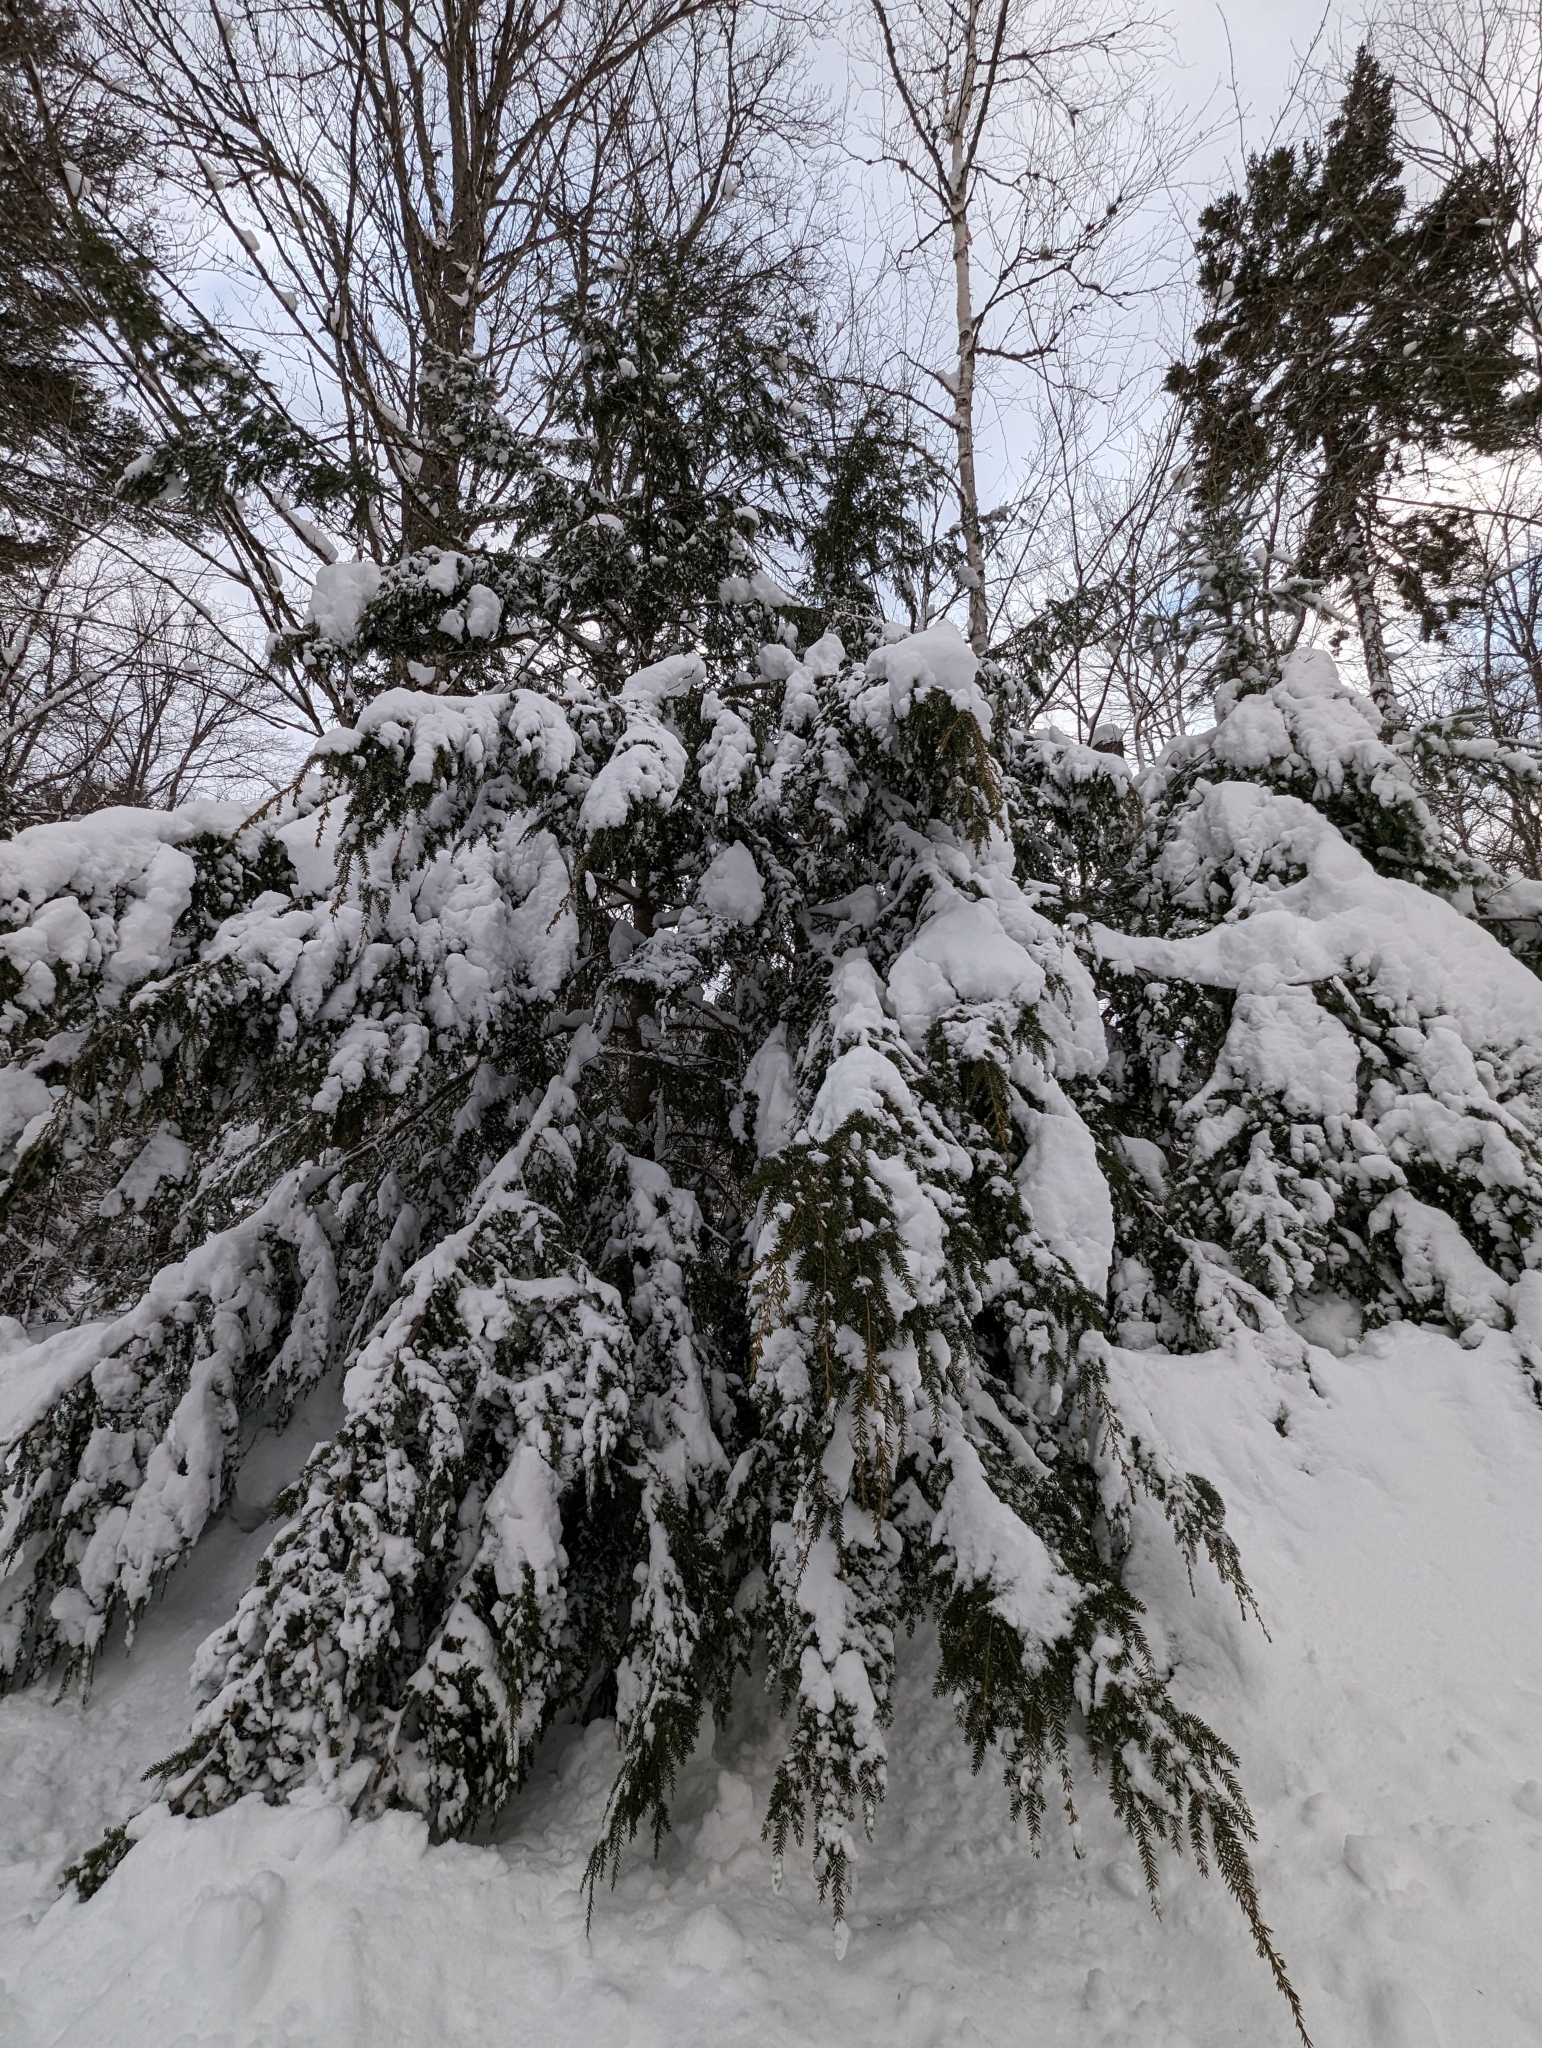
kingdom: Plantae
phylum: Tracheophyta
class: Pinopsida
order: Pinales
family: Pinaceae
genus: Tsuga
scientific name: Tsuga canadensis
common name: Eastern hemlock
